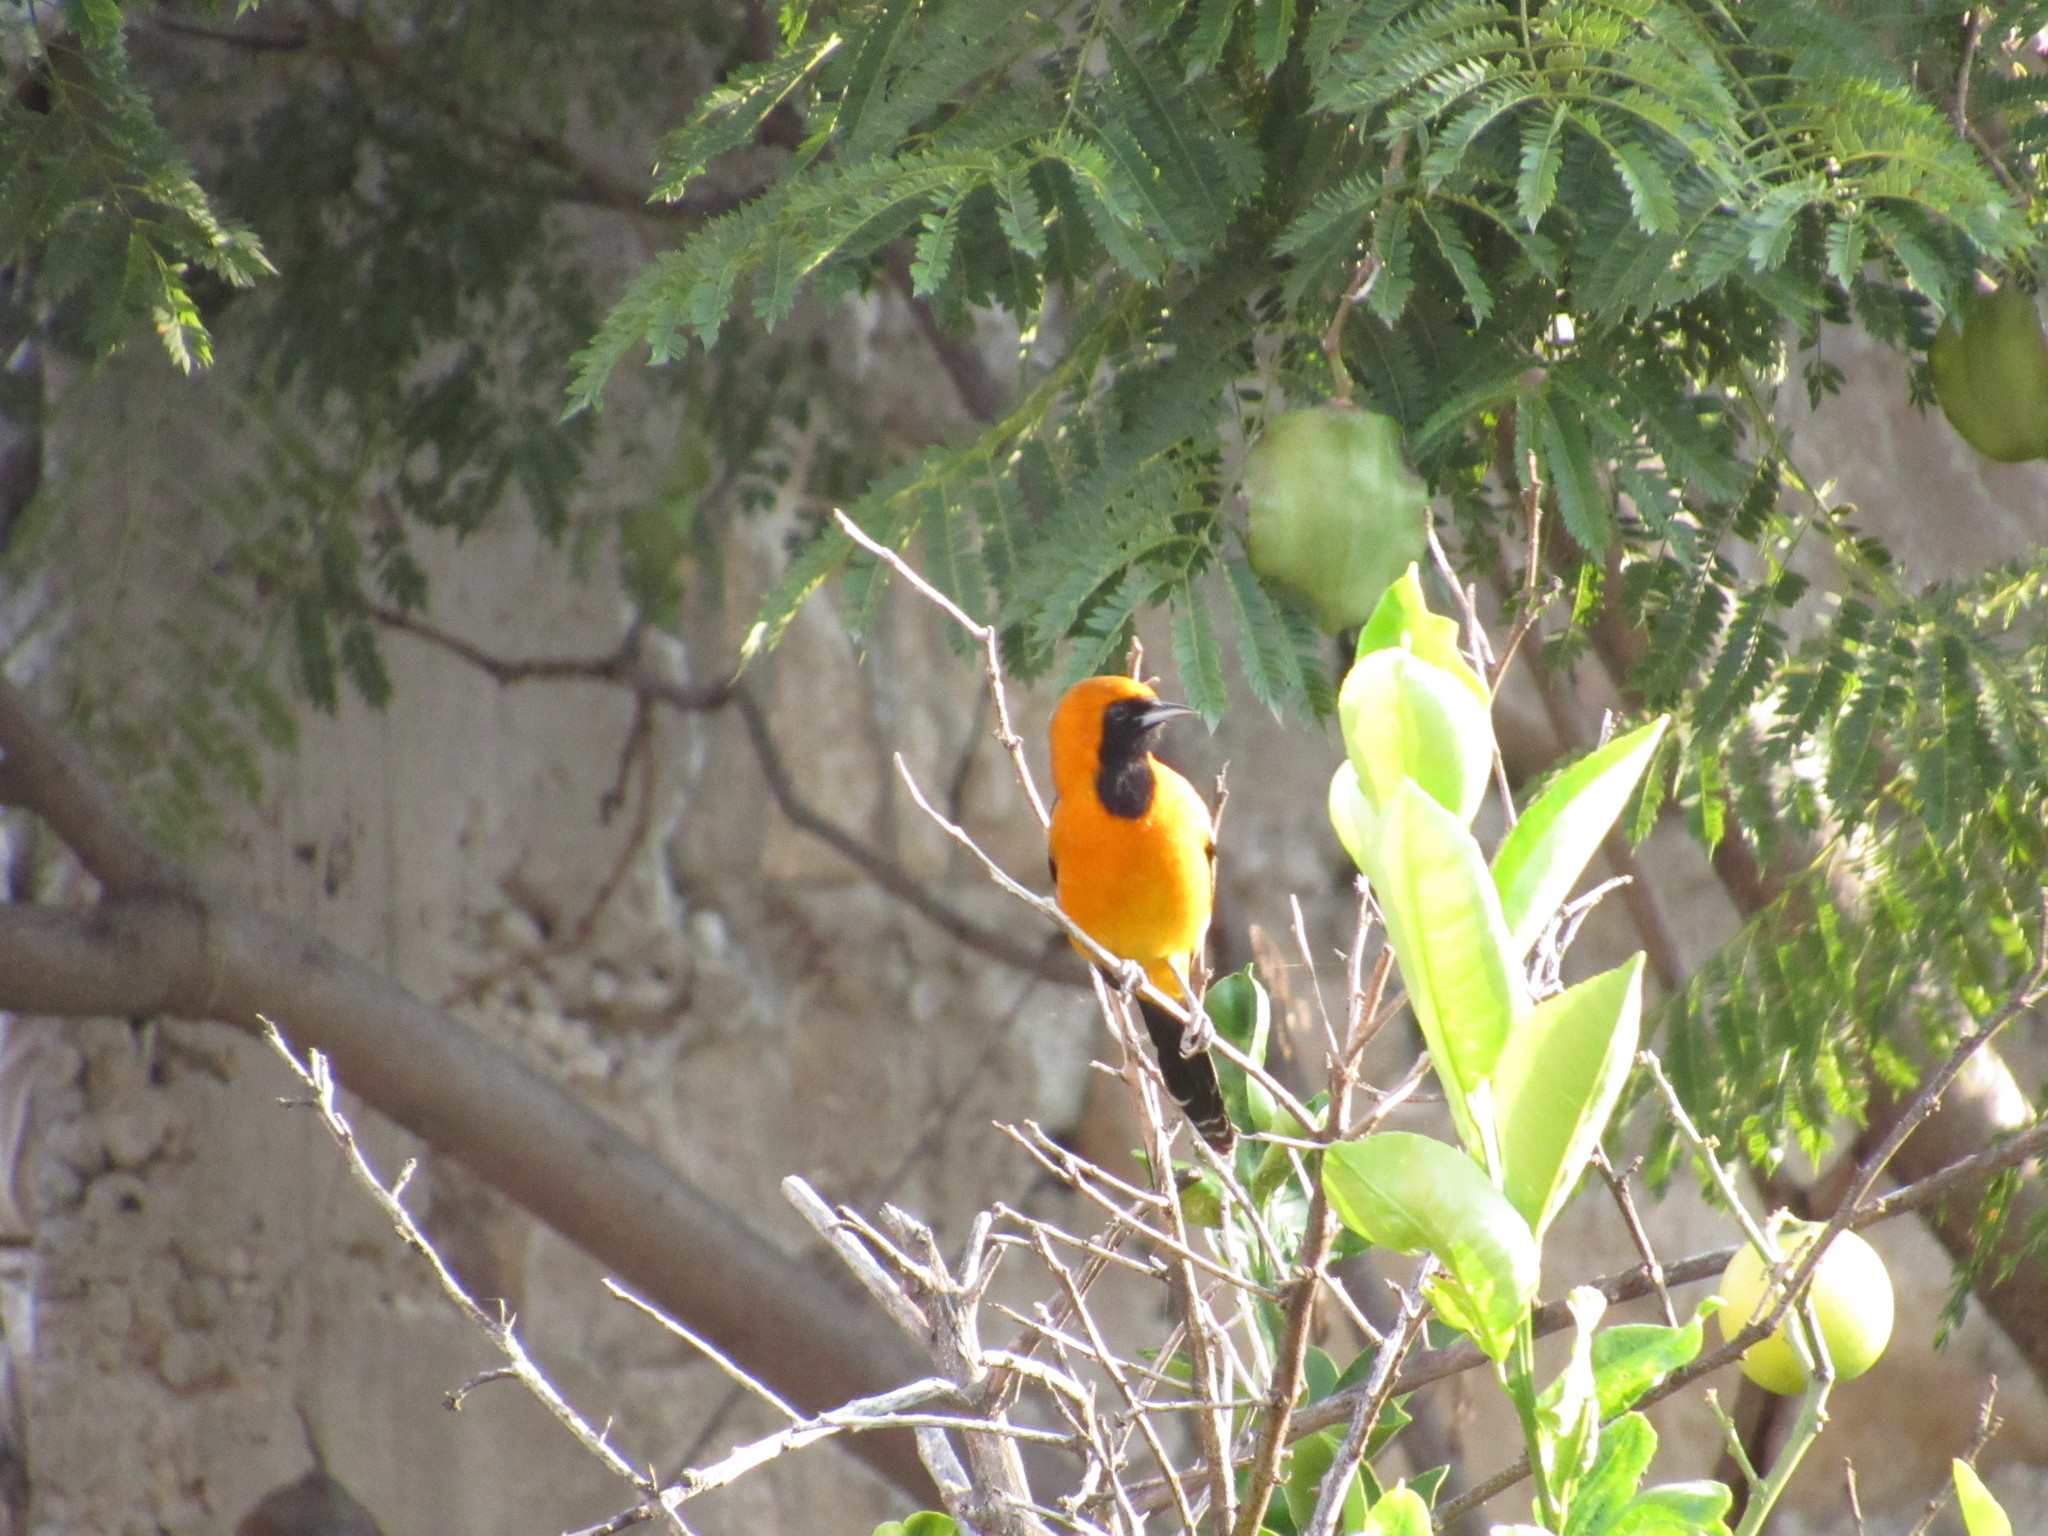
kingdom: Animalia
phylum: Chordata
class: Aves
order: Passeriformes
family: Icteridae
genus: Icterus
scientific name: Icterus cucullatus
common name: Hooded oriole
